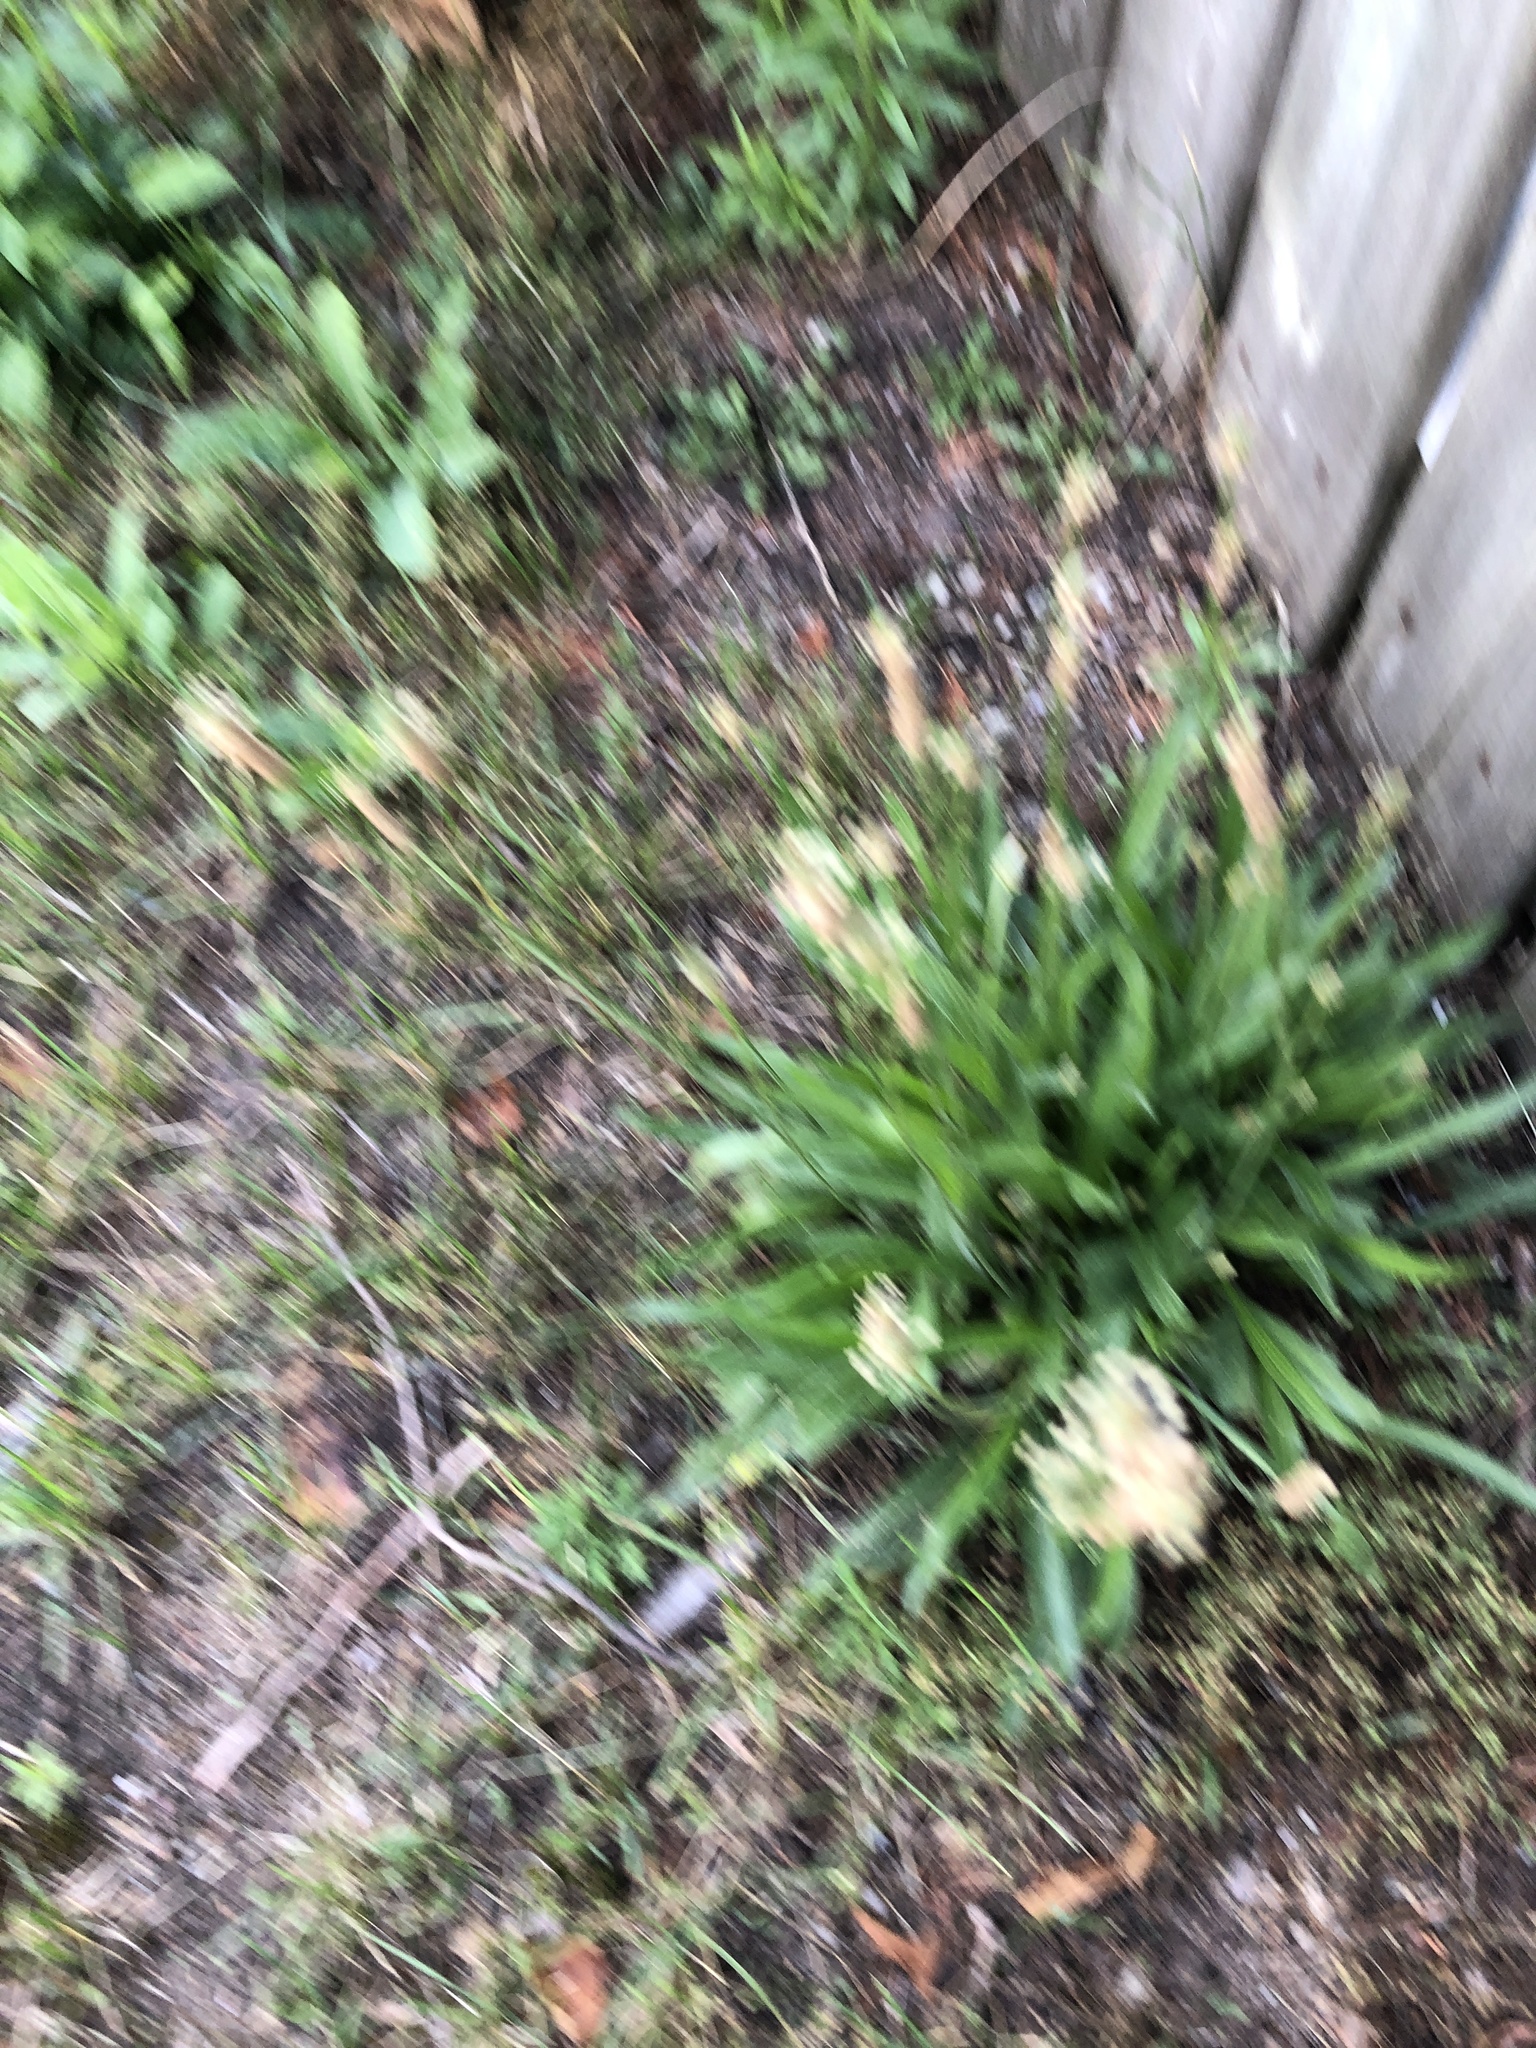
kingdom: Plantae
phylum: Tracheophyta
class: Magnoliopsida
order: Lamiales
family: Plantaginaceae
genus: Plantago
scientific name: Plantago lanceolata
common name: Ribwort plantain
